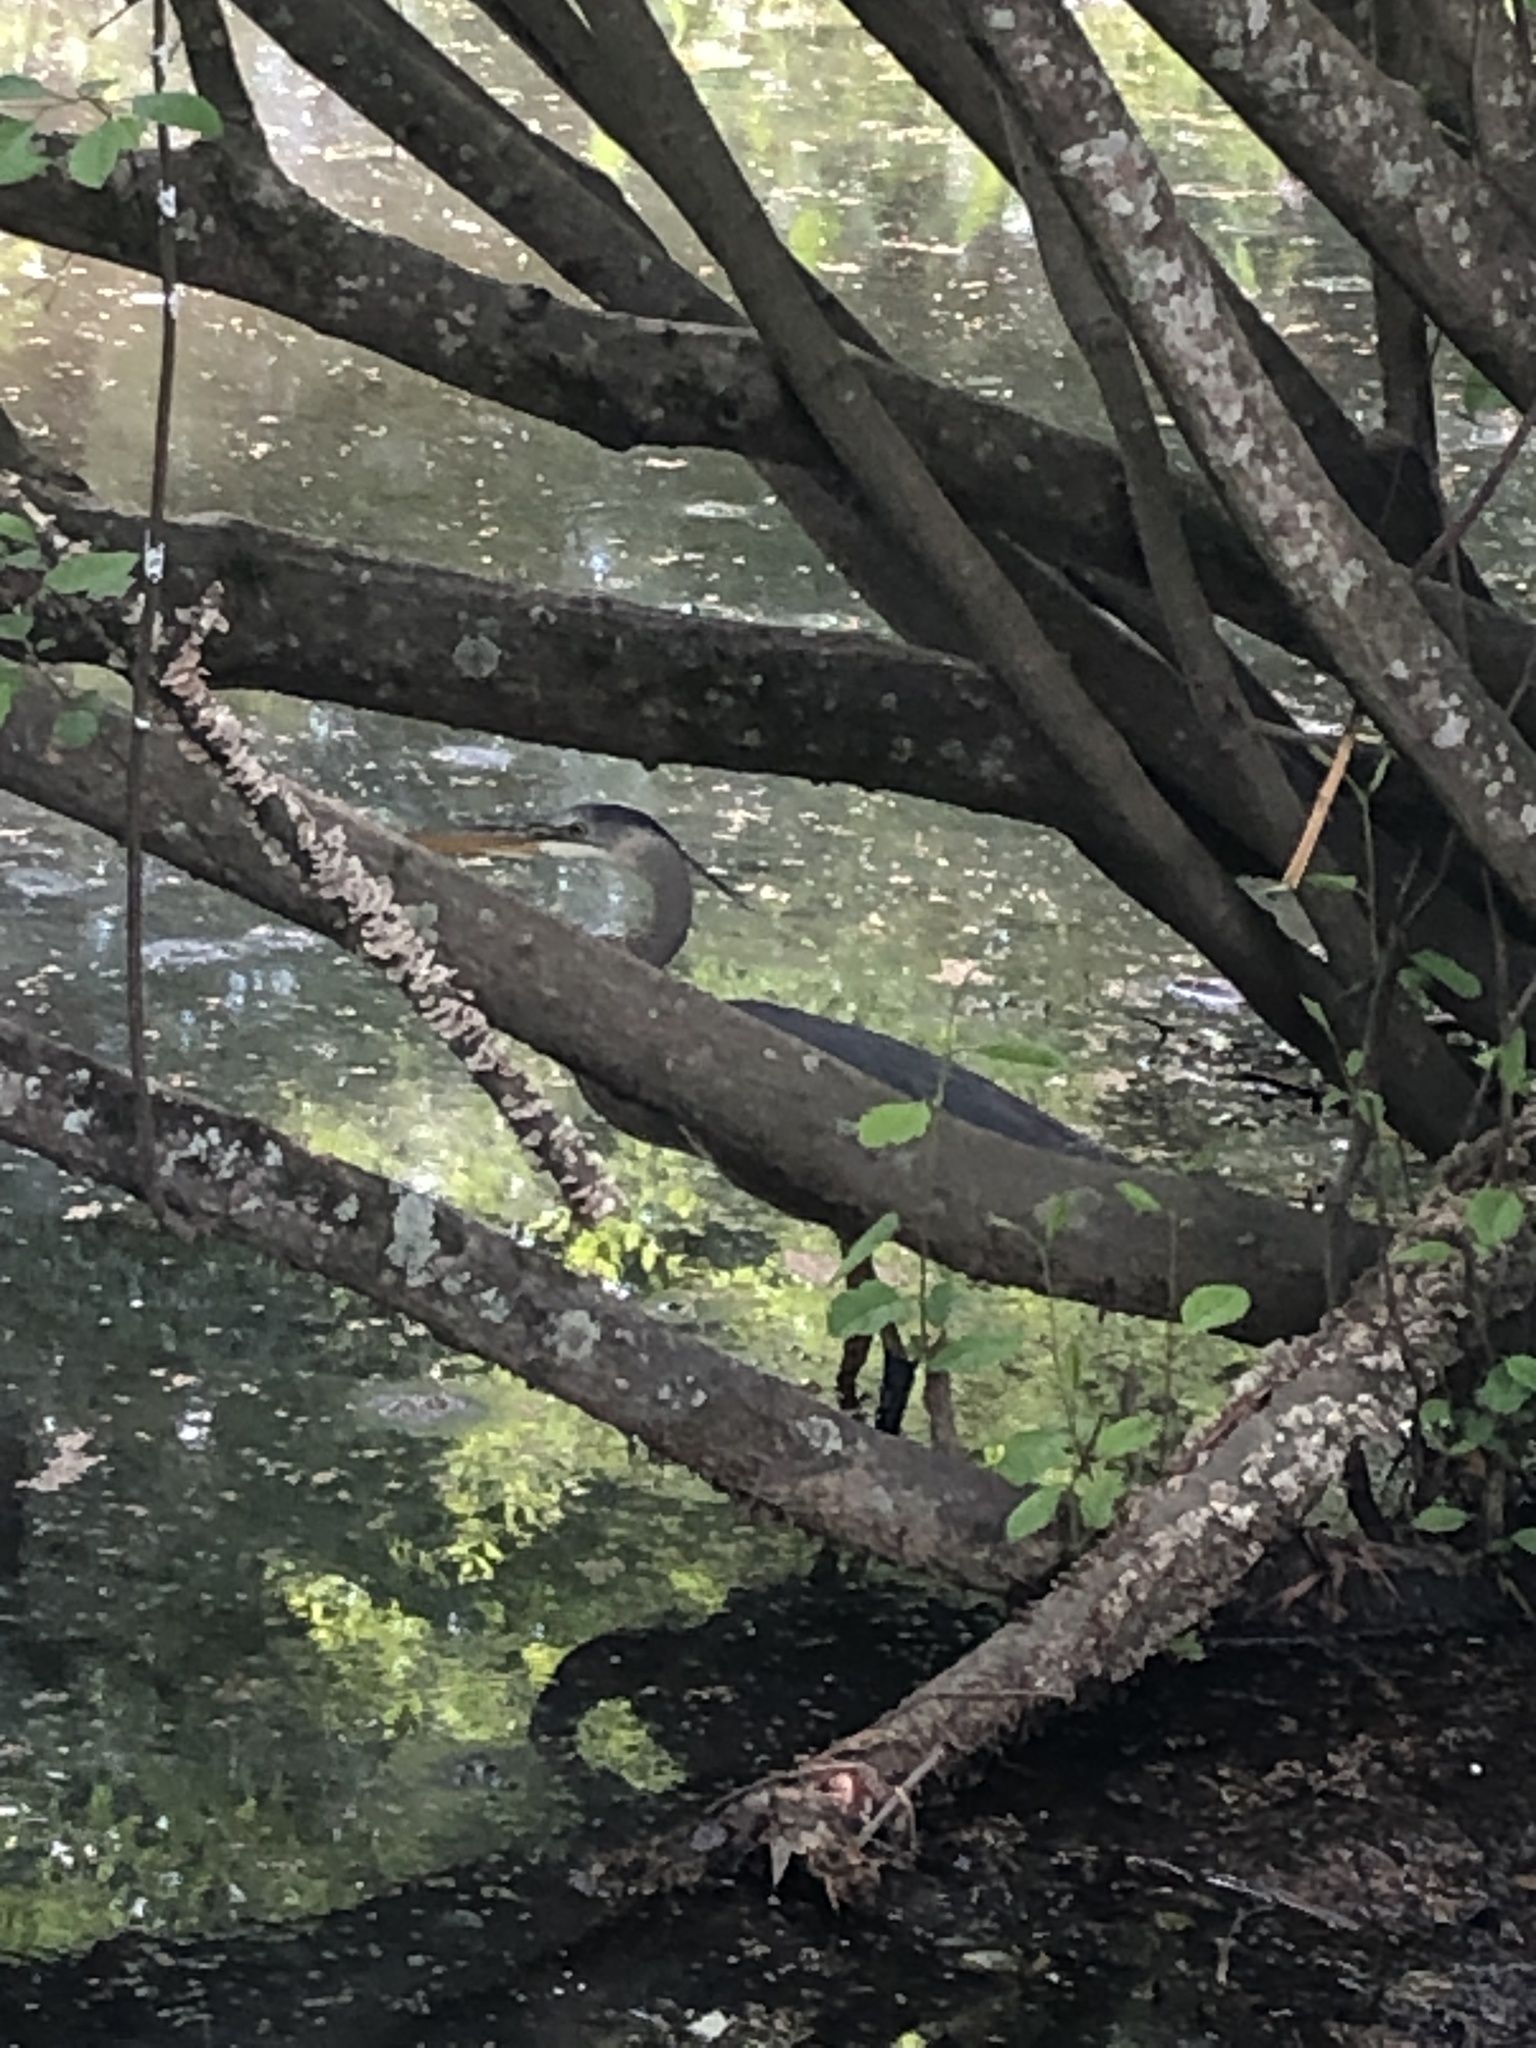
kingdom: Animalia
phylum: Chordata
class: Aves
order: Pelecaniformes
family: Ardeidae
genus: Ardea
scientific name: Ardea herodias
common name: Great blue heron
